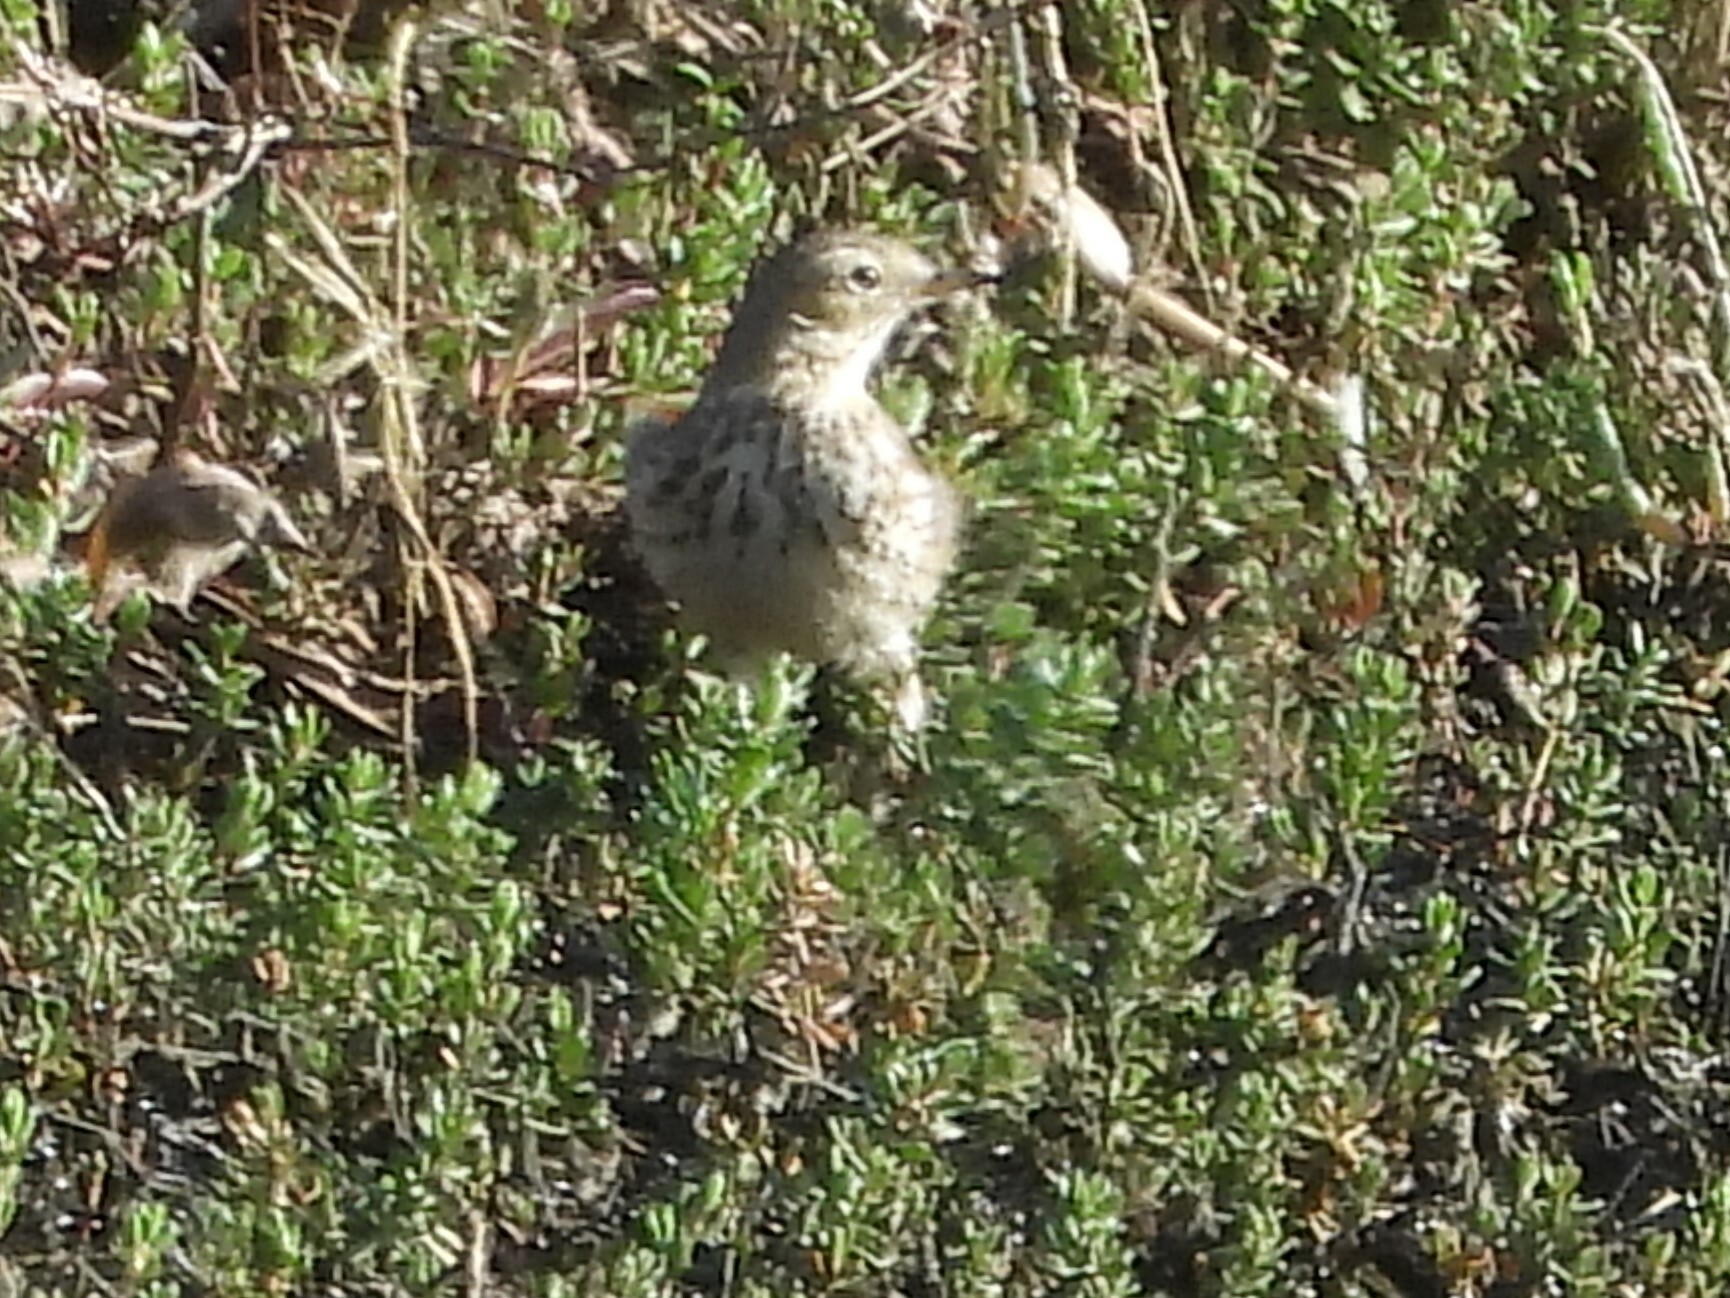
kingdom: Animalia
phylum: Chordata
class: Aves
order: Passeriformes
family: Motacillidae
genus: Anthus
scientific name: Anthus rubescens
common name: Buff-bellied pipit
